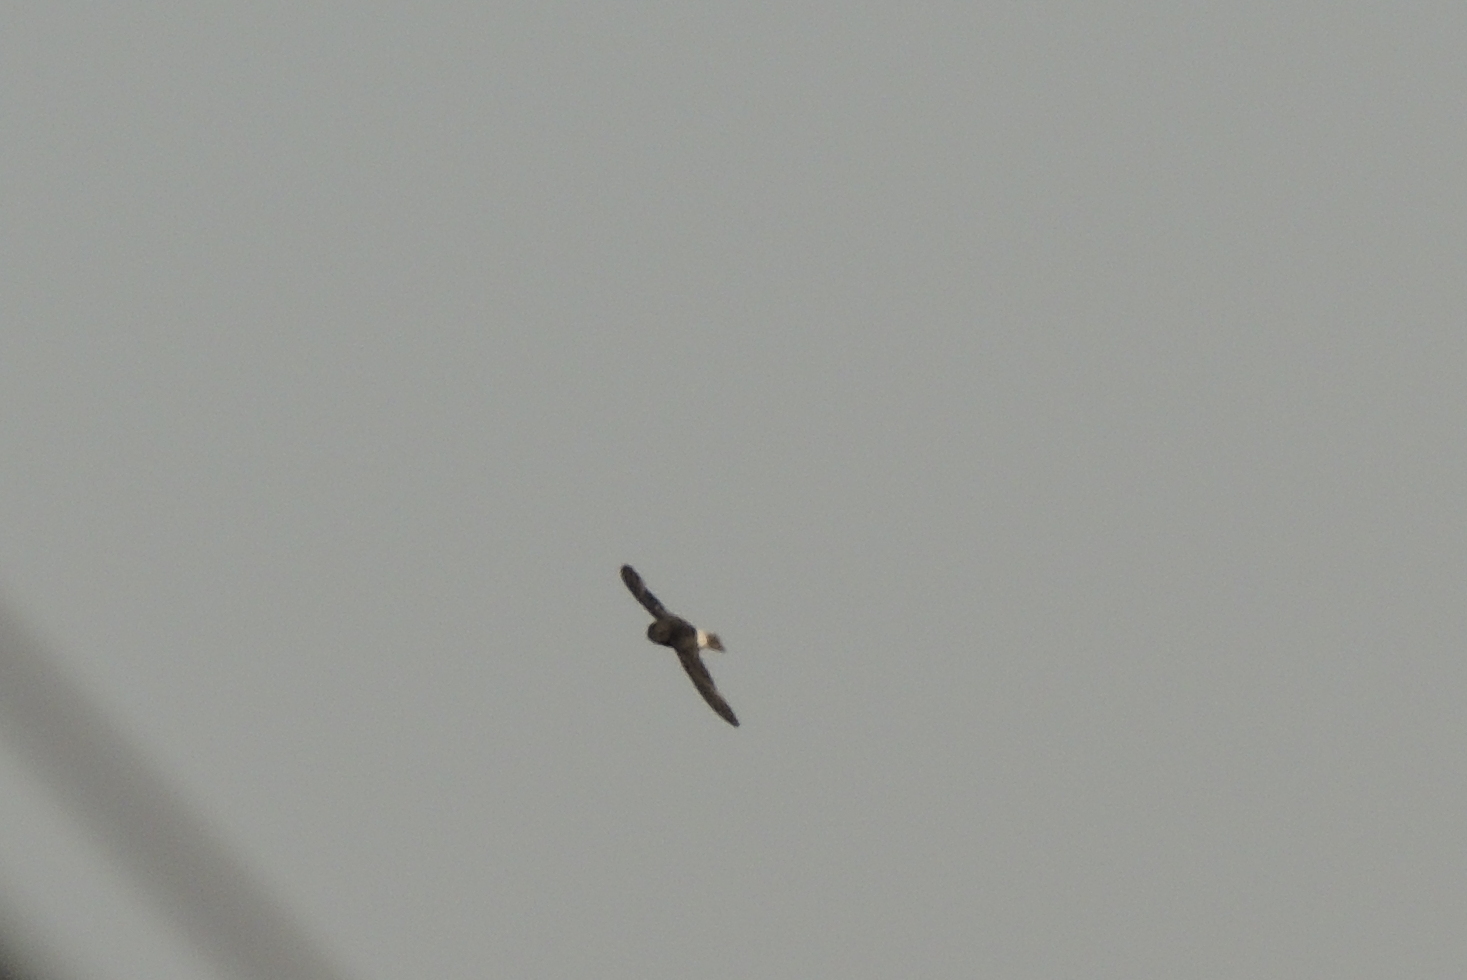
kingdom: Animalia
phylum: Chordata
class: Aves
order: Apodiformes
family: Apodidae
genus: Apus
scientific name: Apus affinis
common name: Little swift
